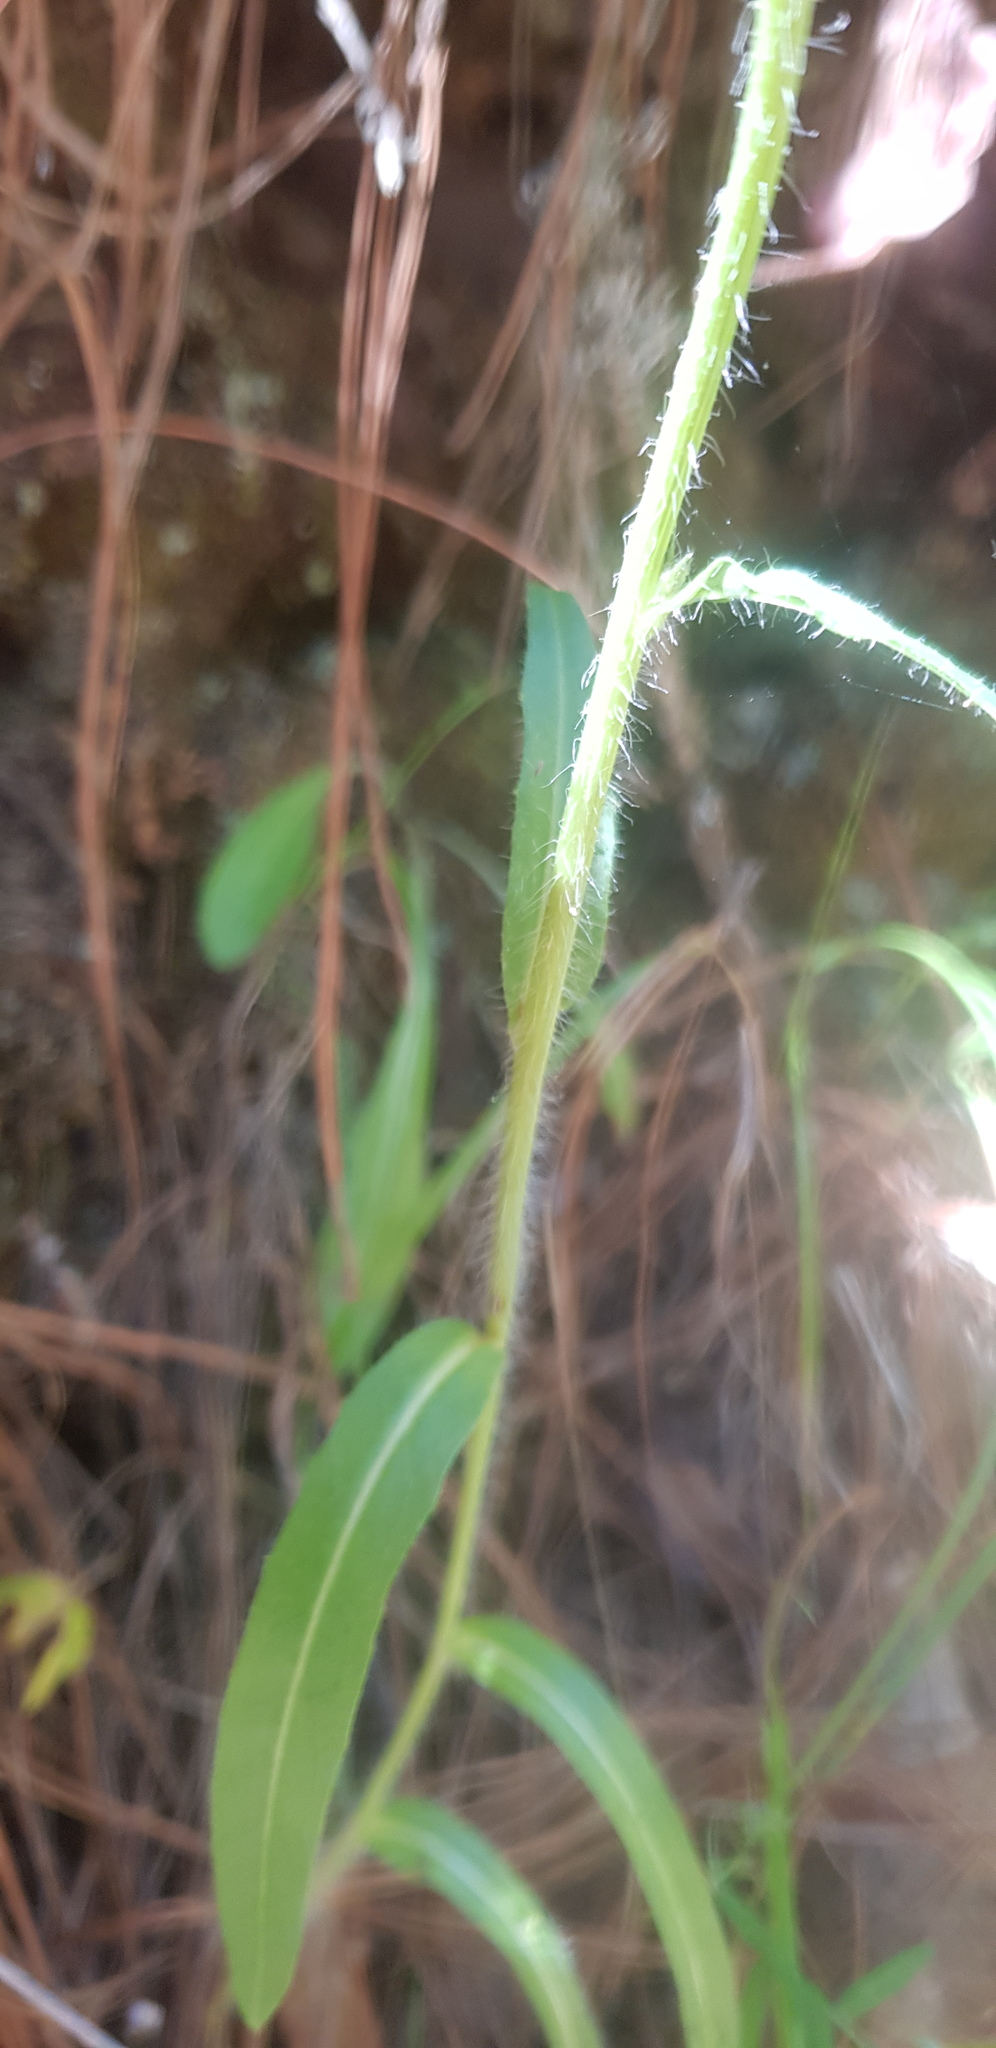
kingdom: Plantae
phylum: Tracheophyta
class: Magnoliopsida
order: Asterales
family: Asteraceae
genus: Hieracium
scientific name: Hieracium abscissum
